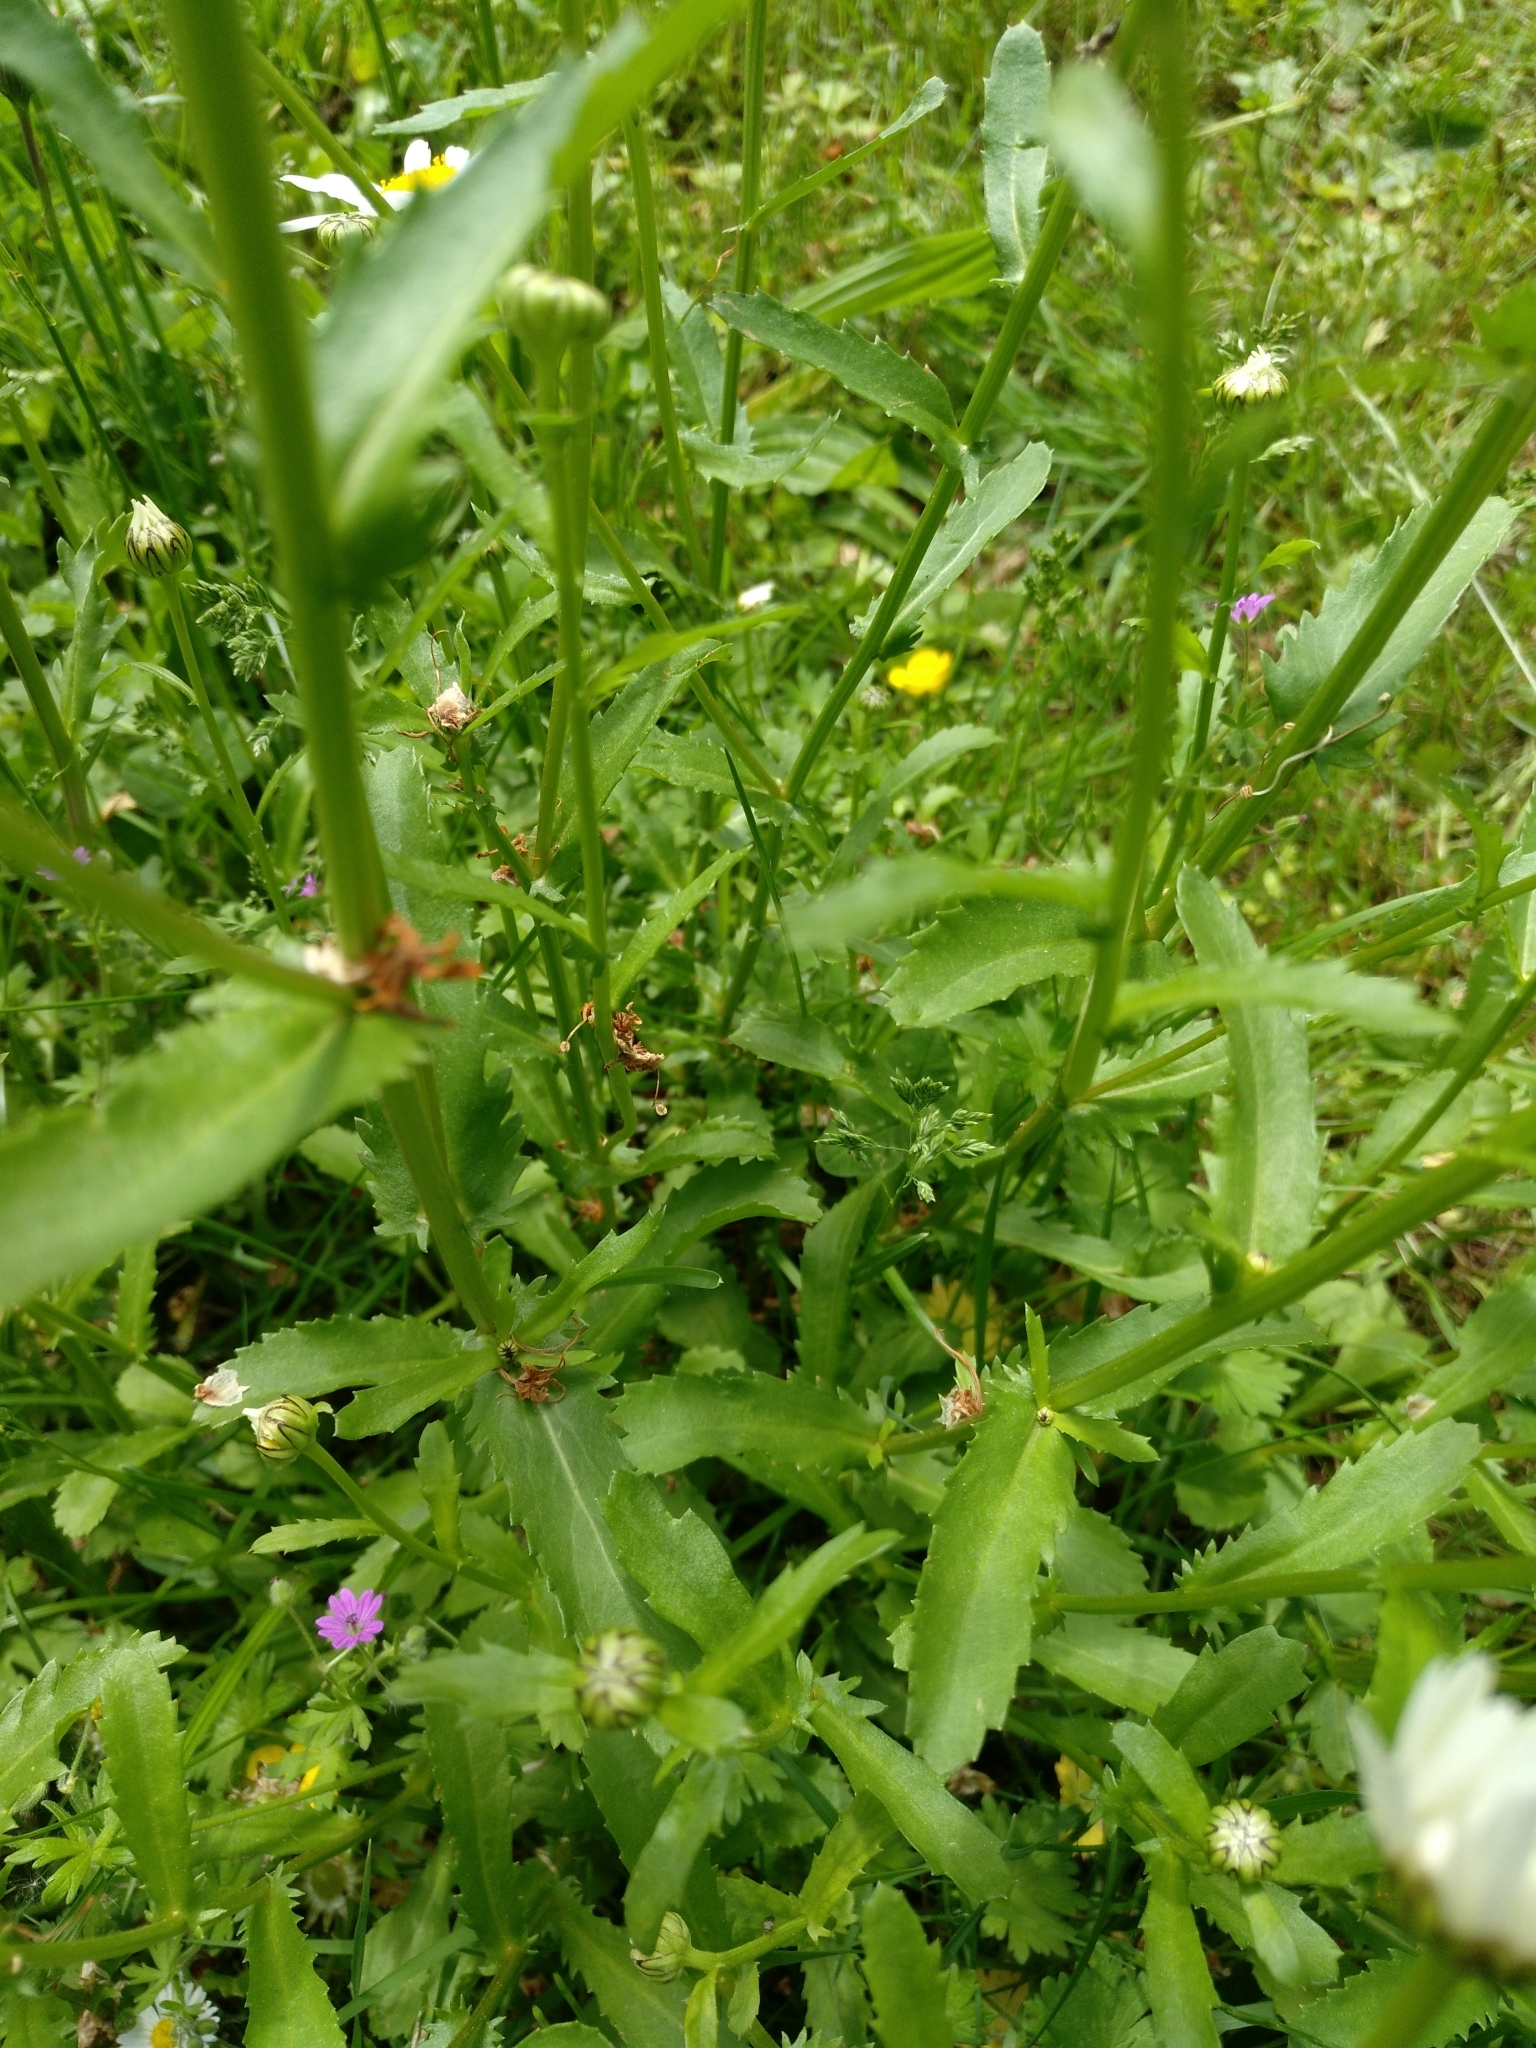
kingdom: Plantae
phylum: Tracheophyta
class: Magnoliopsida
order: Asterales
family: Asteraceae
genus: Leucanthemum
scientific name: Leucanthemum vulgare
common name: Oxeye daisy
